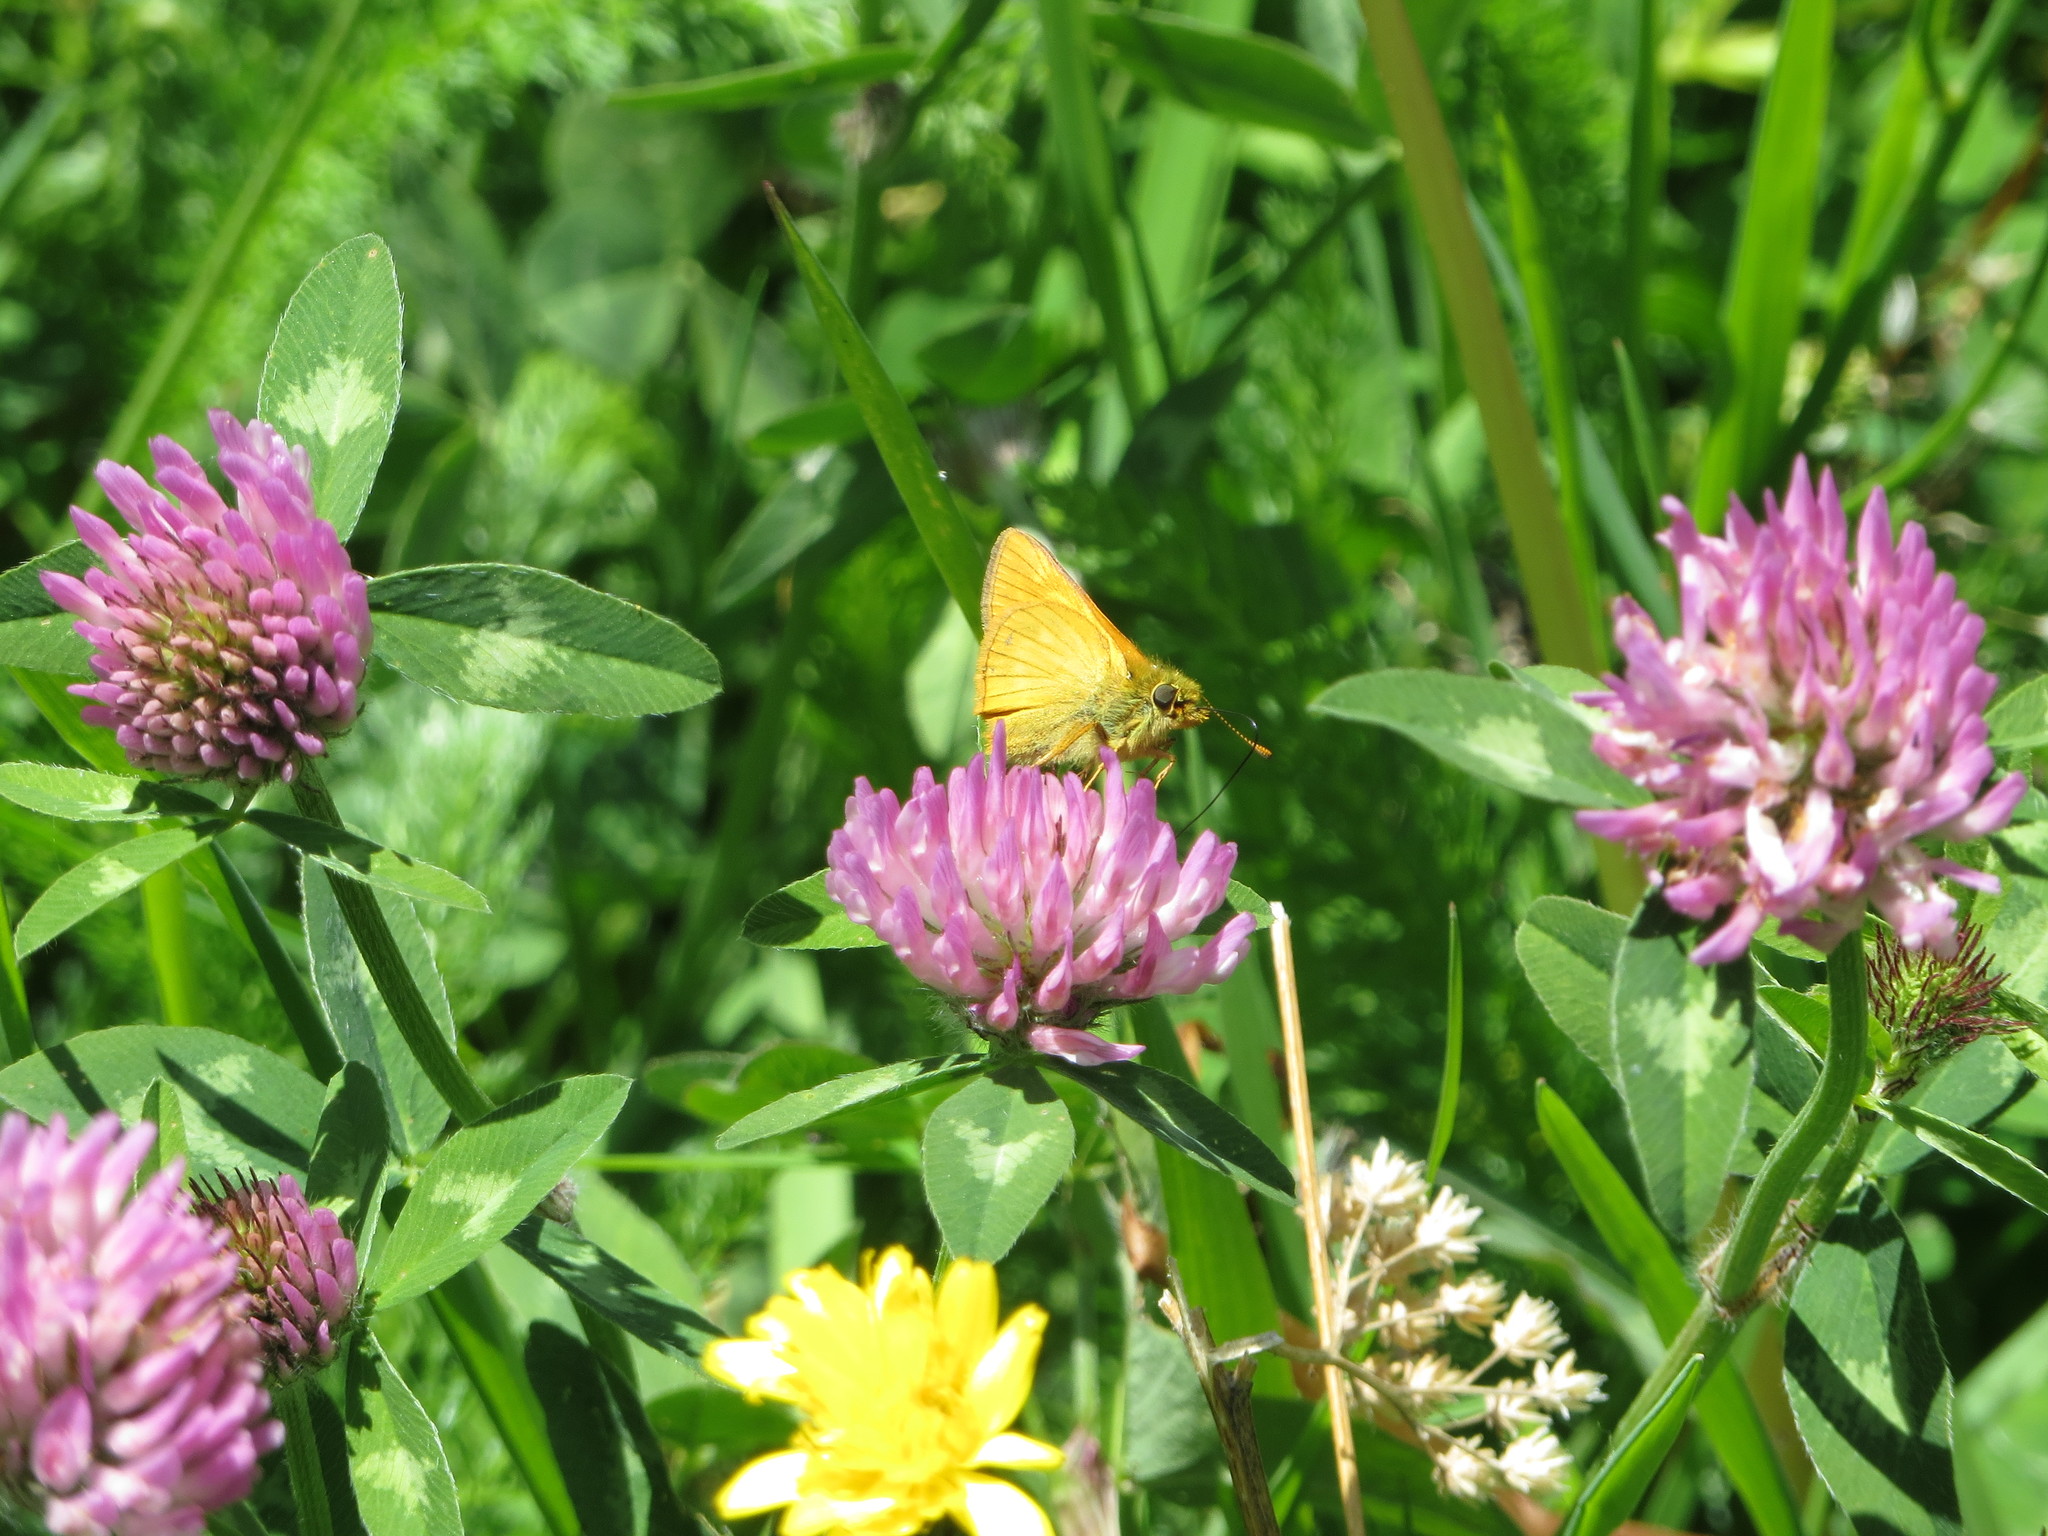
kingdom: Animalia
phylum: Arthropoda
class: Insecta
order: Lepidoptera
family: Hesperiidae
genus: Ochlodes
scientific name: Ochlodes venata
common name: Large skipper
